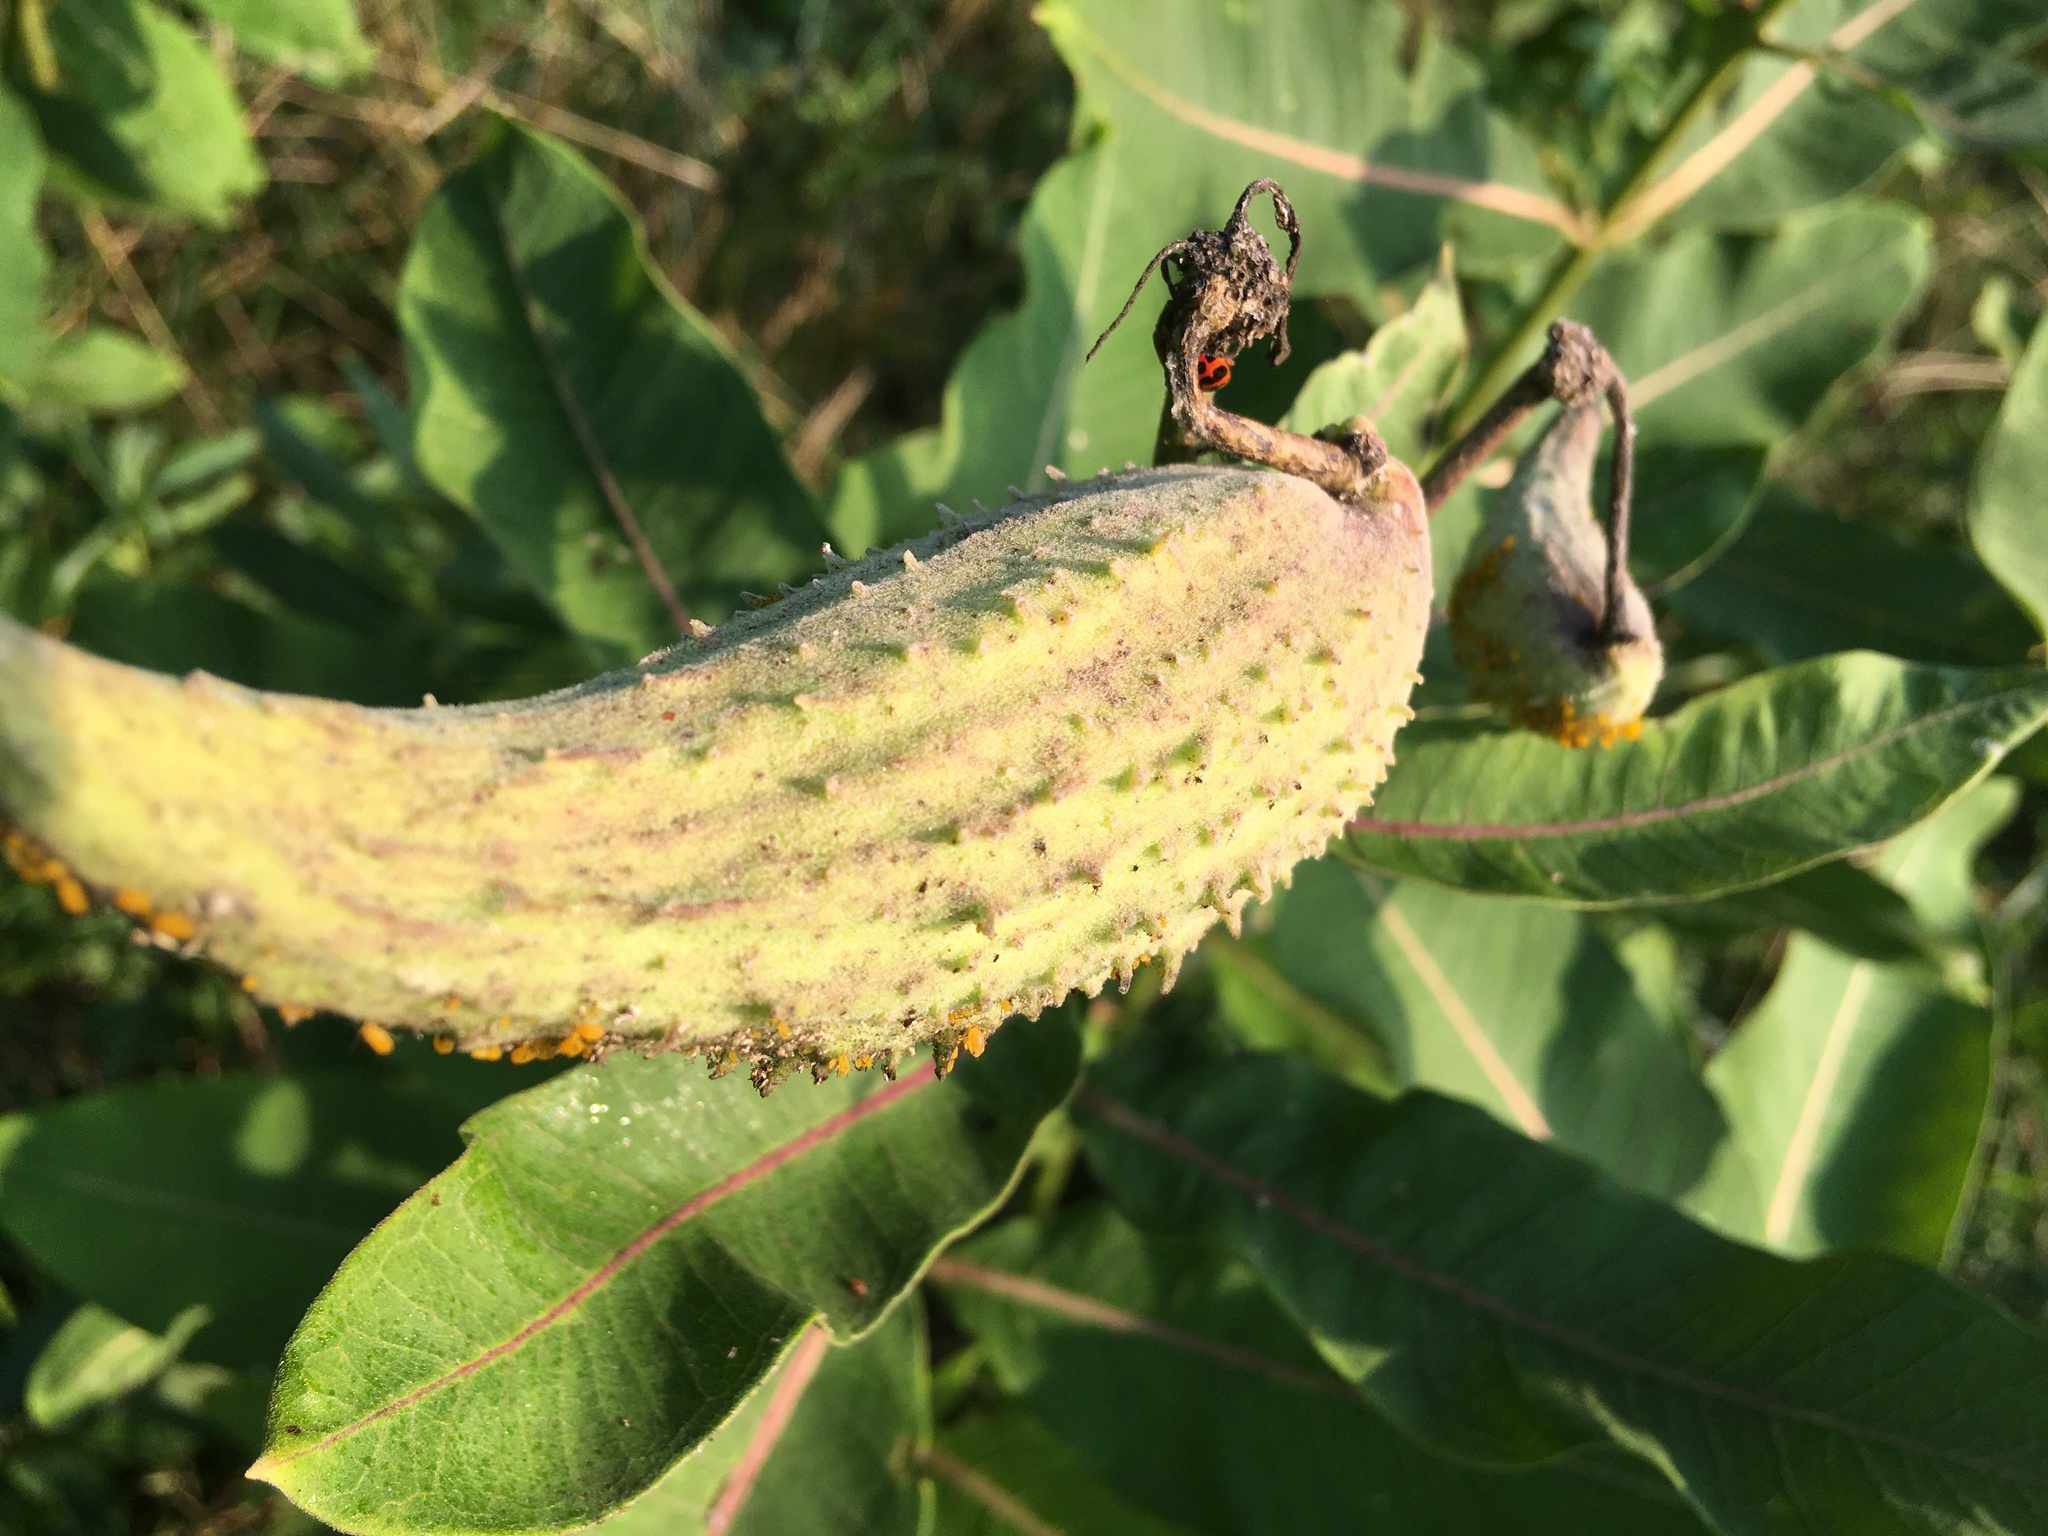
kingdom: Plantae
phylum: Tracheophyta
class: Magnoliopsida
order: Gentianales
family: Apocynaceae
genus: Asclepias
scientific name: Asclepias syriaca
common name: Common milkweed
